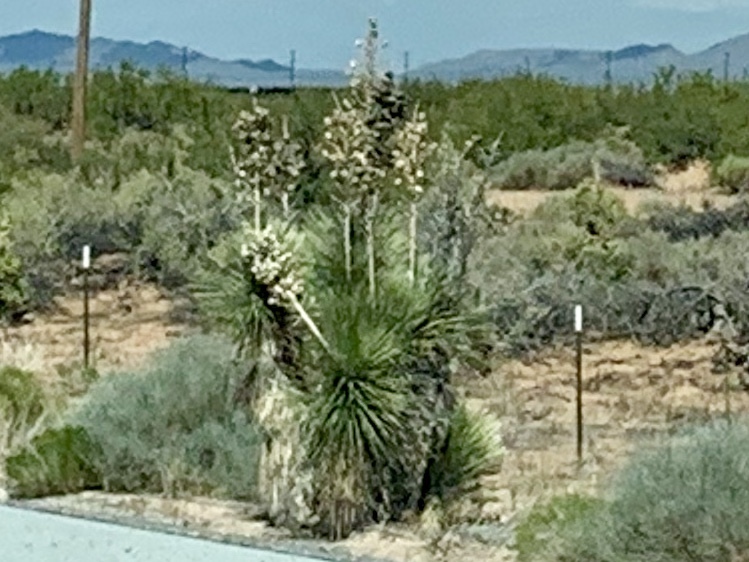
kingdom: Plantae
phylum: Tracheophyta
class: Liliopsida
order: Asparagales
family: Asparagaceae
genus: Yucca
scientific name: Yucca elata
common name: Palmella
